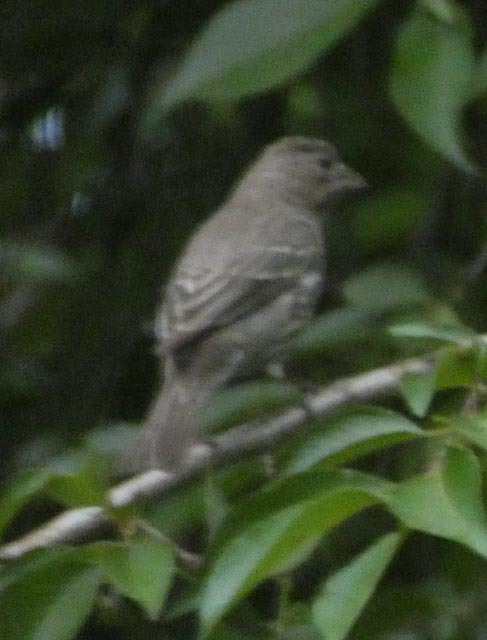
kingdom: Animalia
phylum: Chordata
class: Aves
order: Passeriformes
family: Fringillidae
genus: Haemorhous
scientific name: Haemorhous mexicanus
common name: House finch
